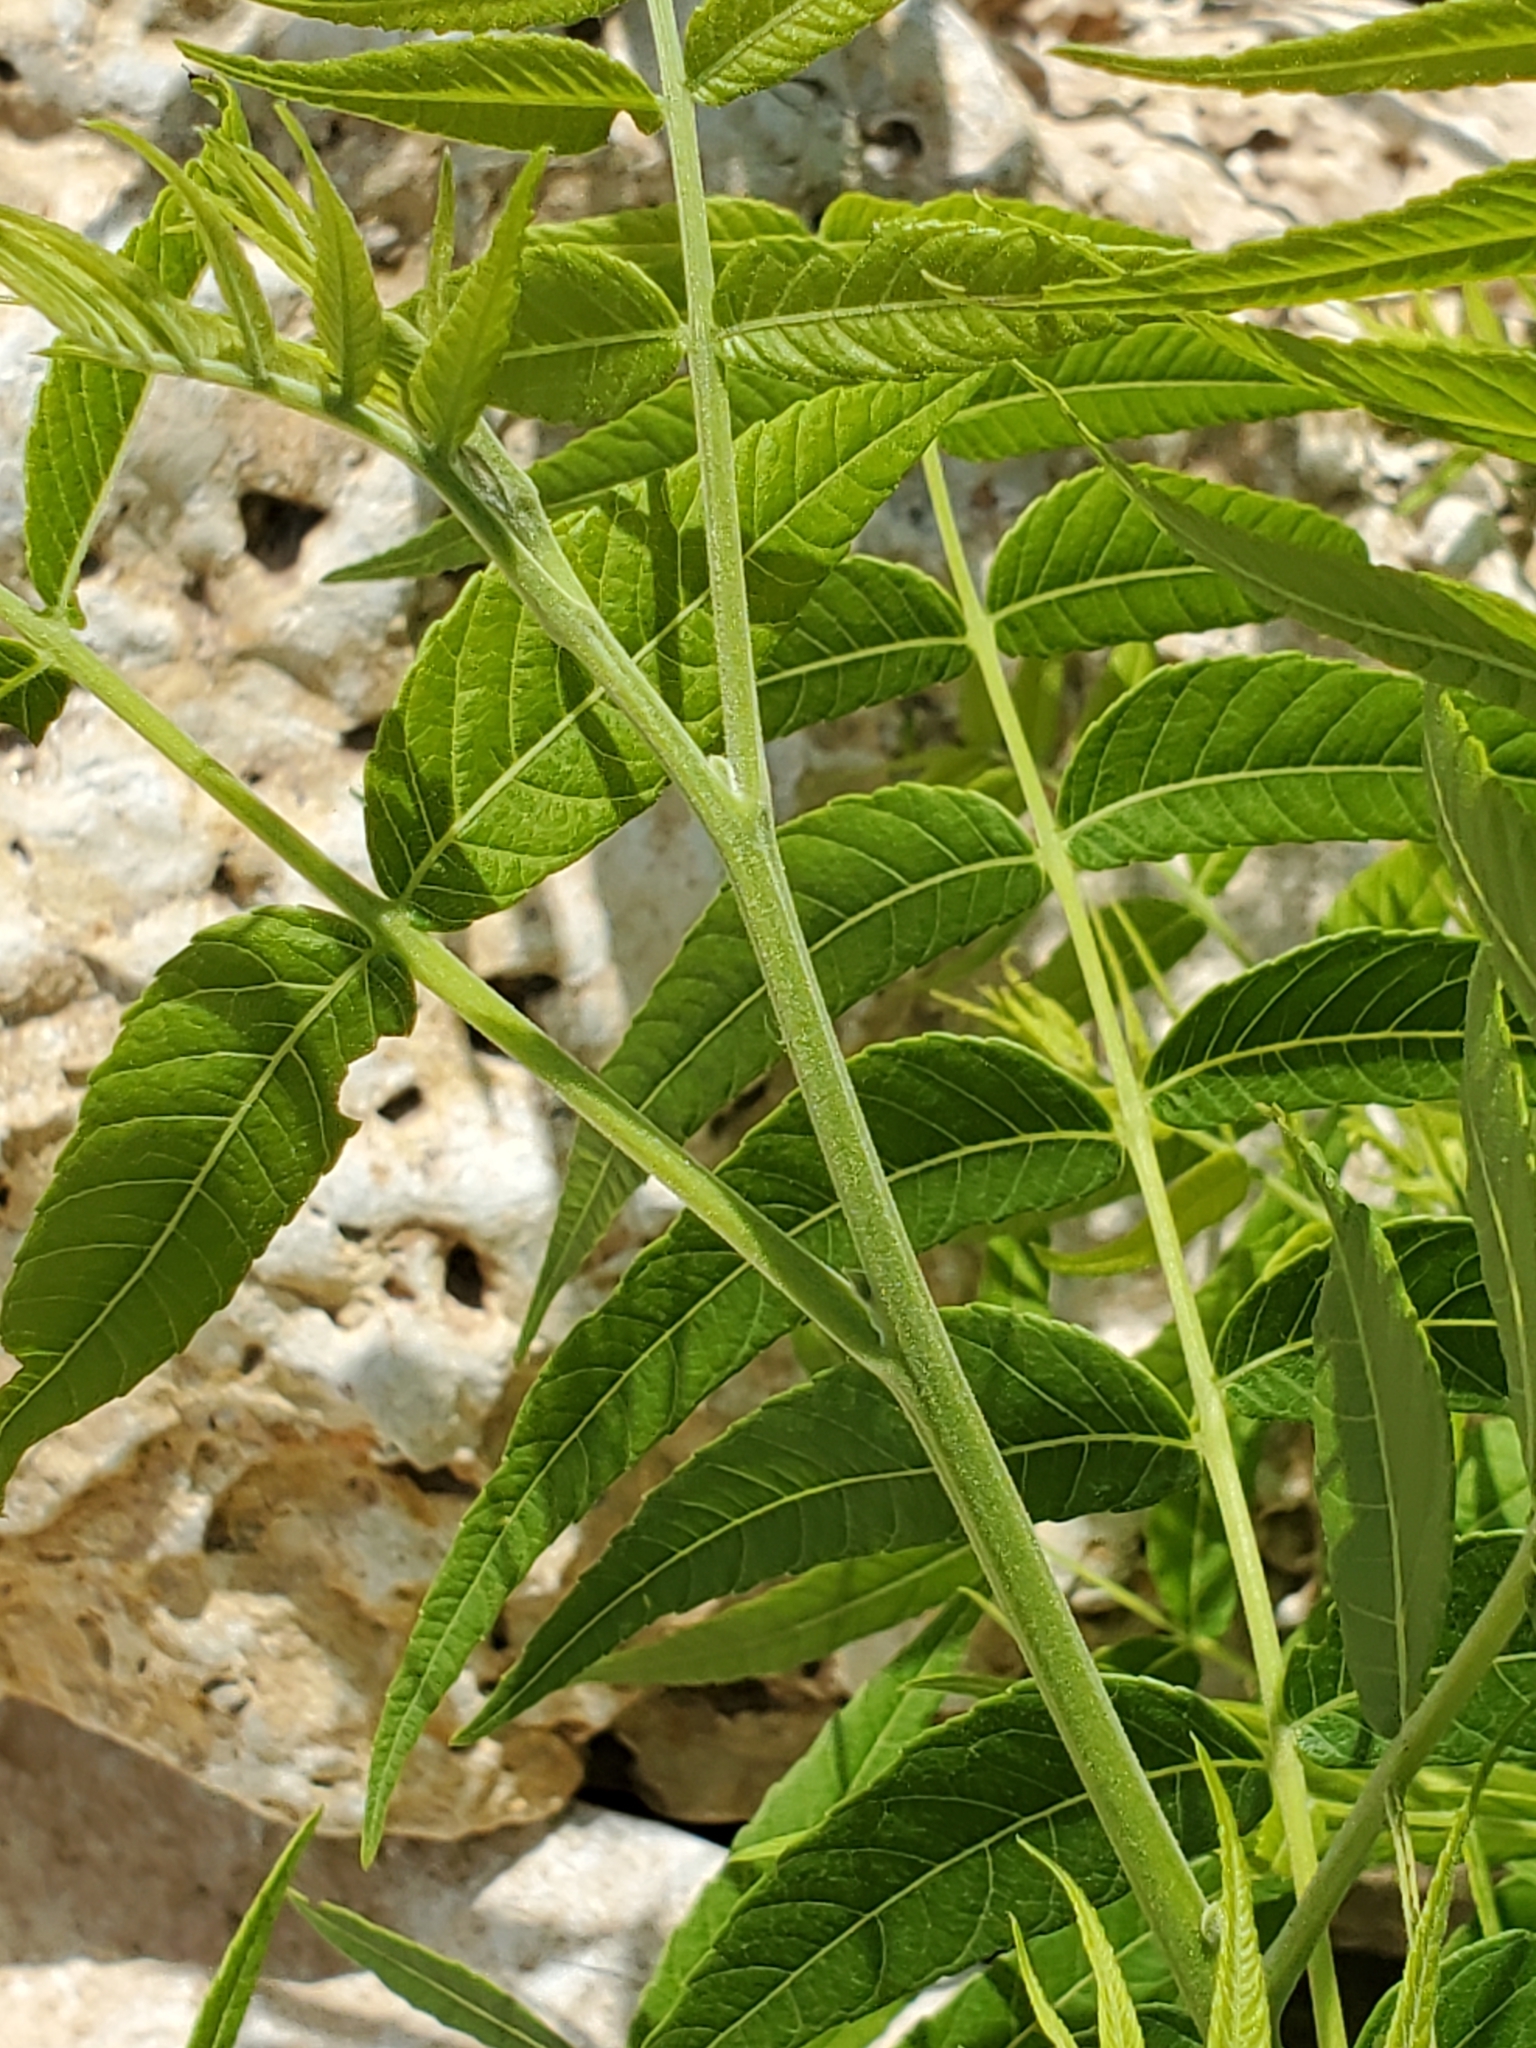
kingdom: Plantae
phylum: Tracheophyta
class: Magnoliopsida
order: Fagales
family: Juglandaceae
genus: Juglans
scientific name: Juglans microcarpa
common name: Texas walnut
